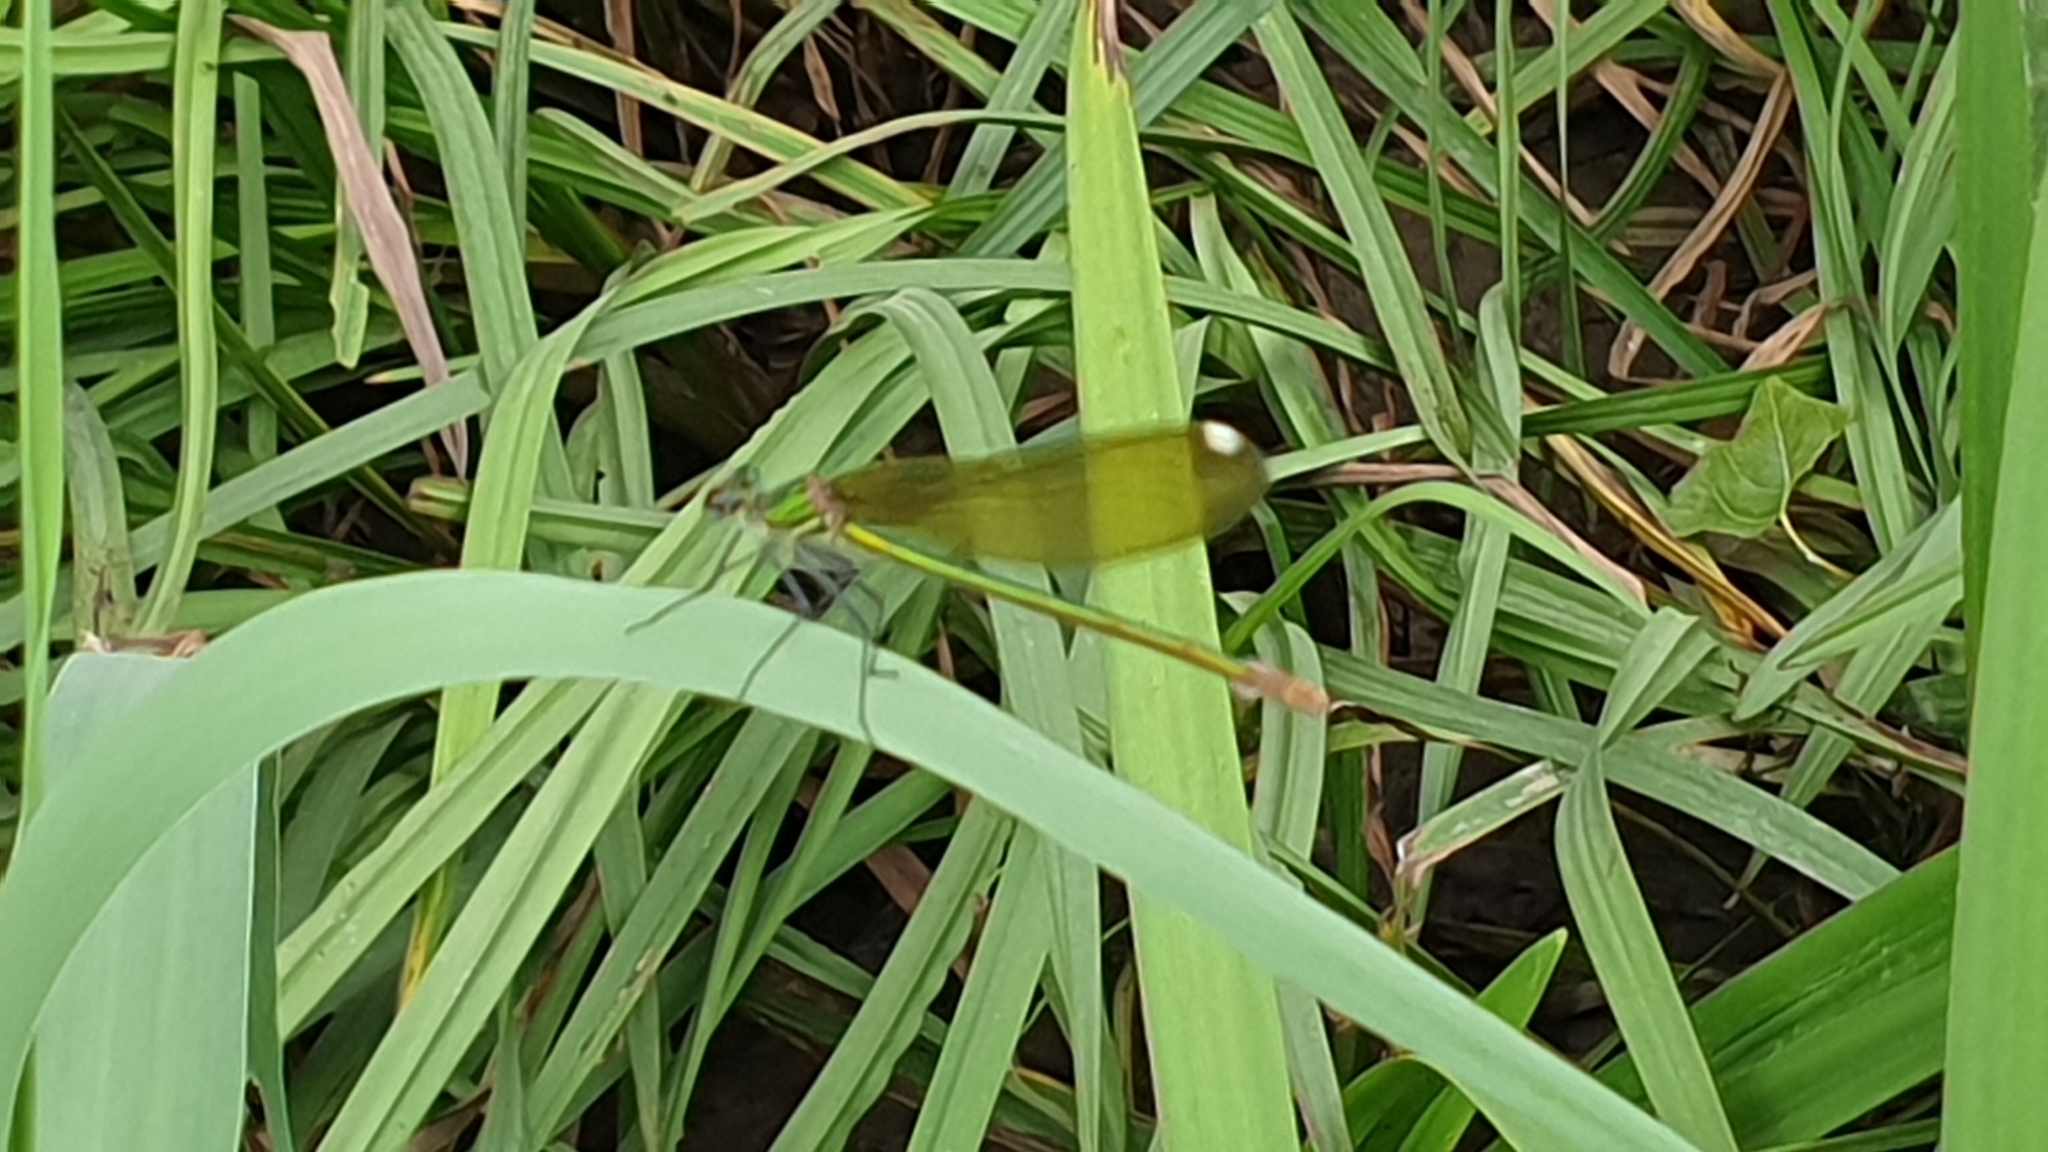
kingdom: Animalia
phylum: Arthropoda
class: Insecta
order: Odonata
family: Calopterygidae
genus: Calopteryx
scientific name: Calopteryx xanthostoma
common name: Western demoiselle
